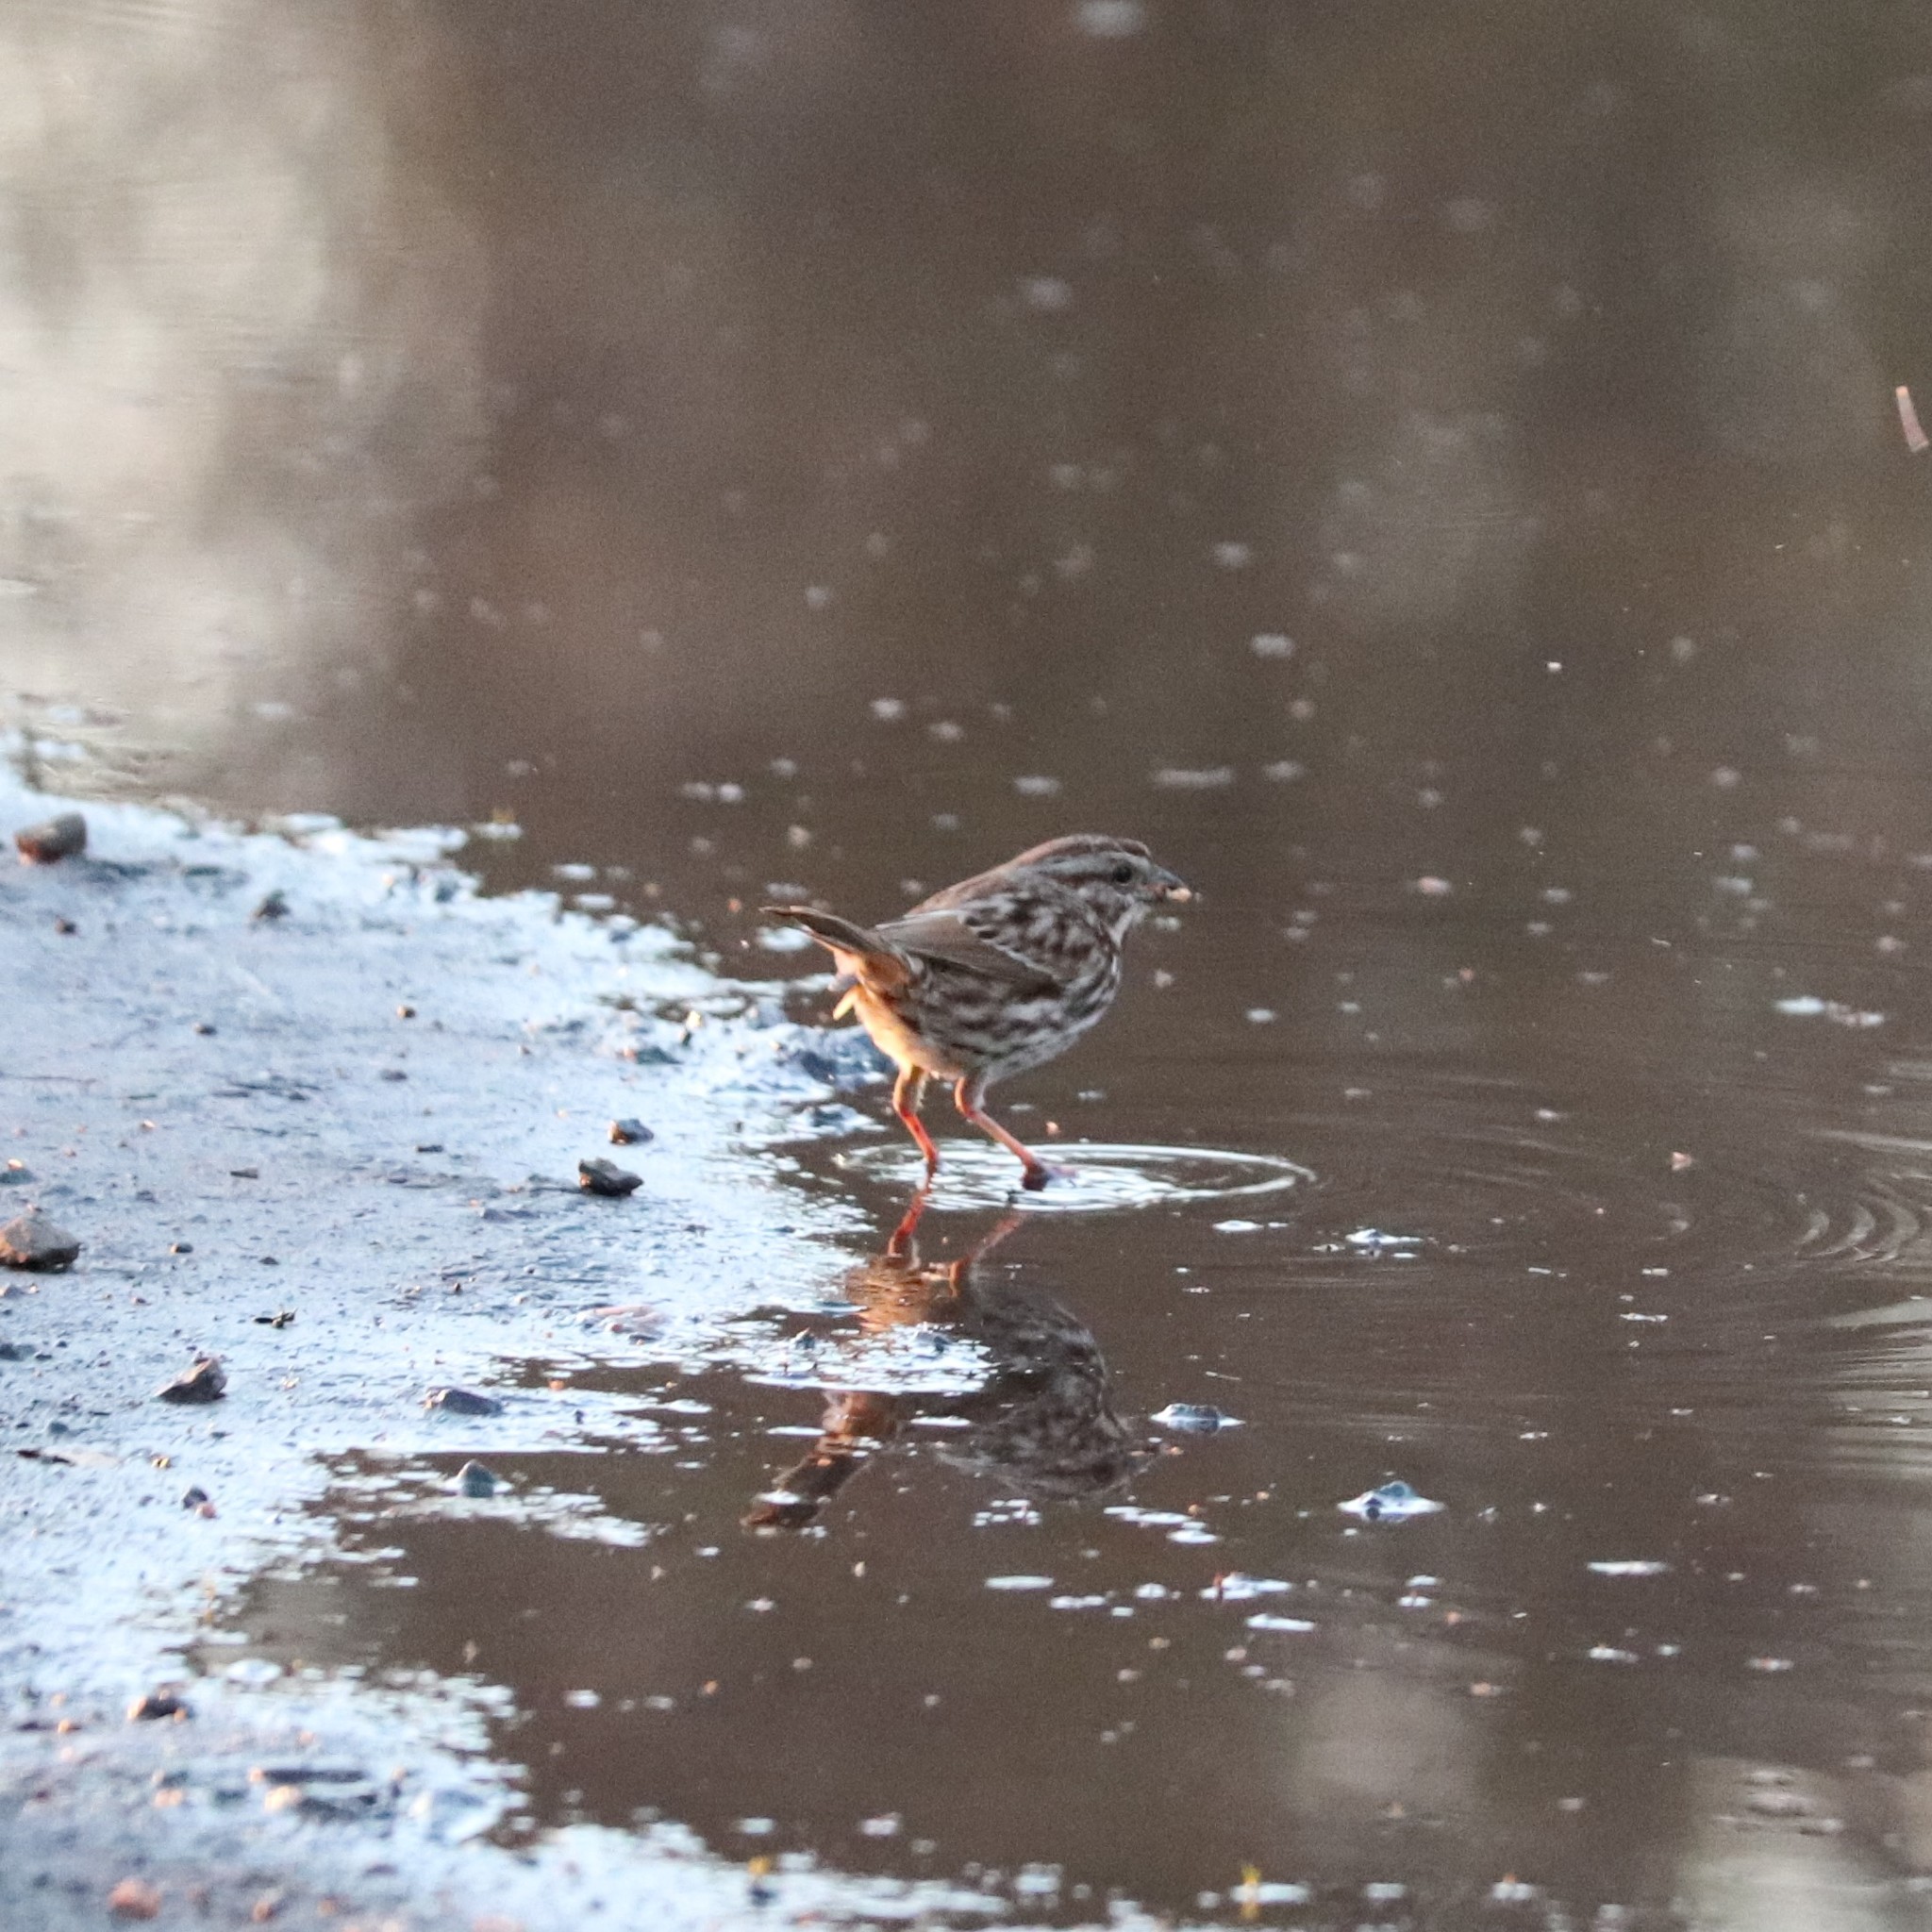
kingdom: Animalia
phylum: Chordata
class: Aves
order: Passeriformes
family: Passerellidae
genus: Melospiza
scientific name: Melospiza melodia
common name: Song sparrow
